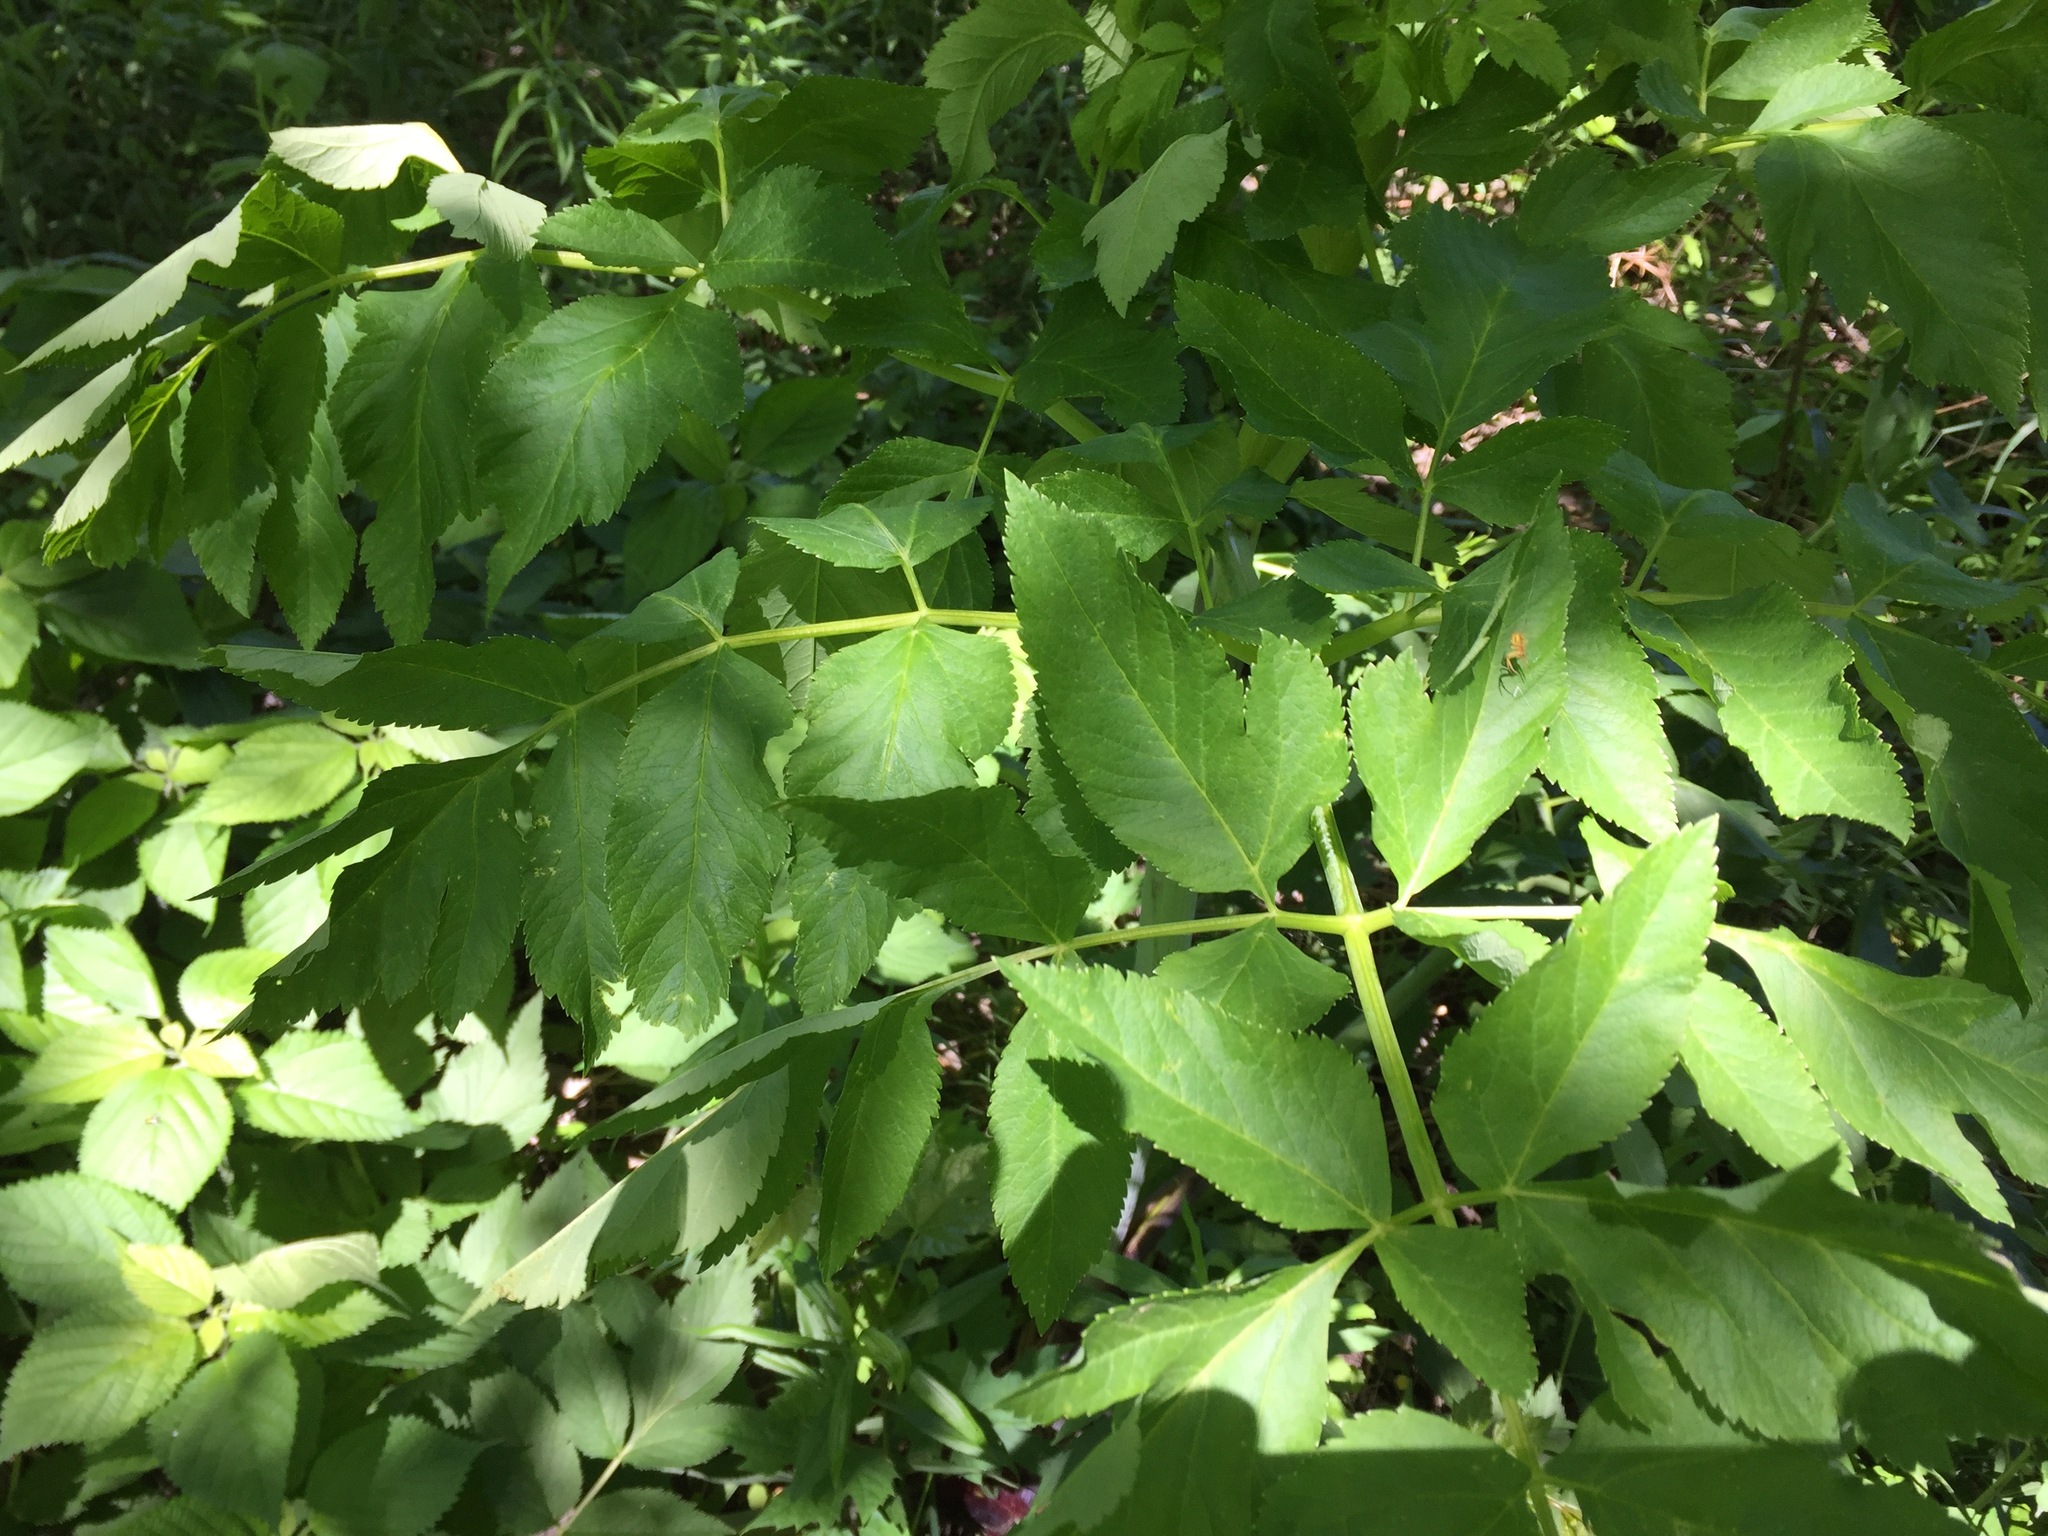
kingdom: Plantae
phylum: Tracheophyta
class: Magnoliopsida
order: Apiales
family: Apiaceae
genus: Angelica
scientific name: Angelica atropurpurea
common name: Great angelica
